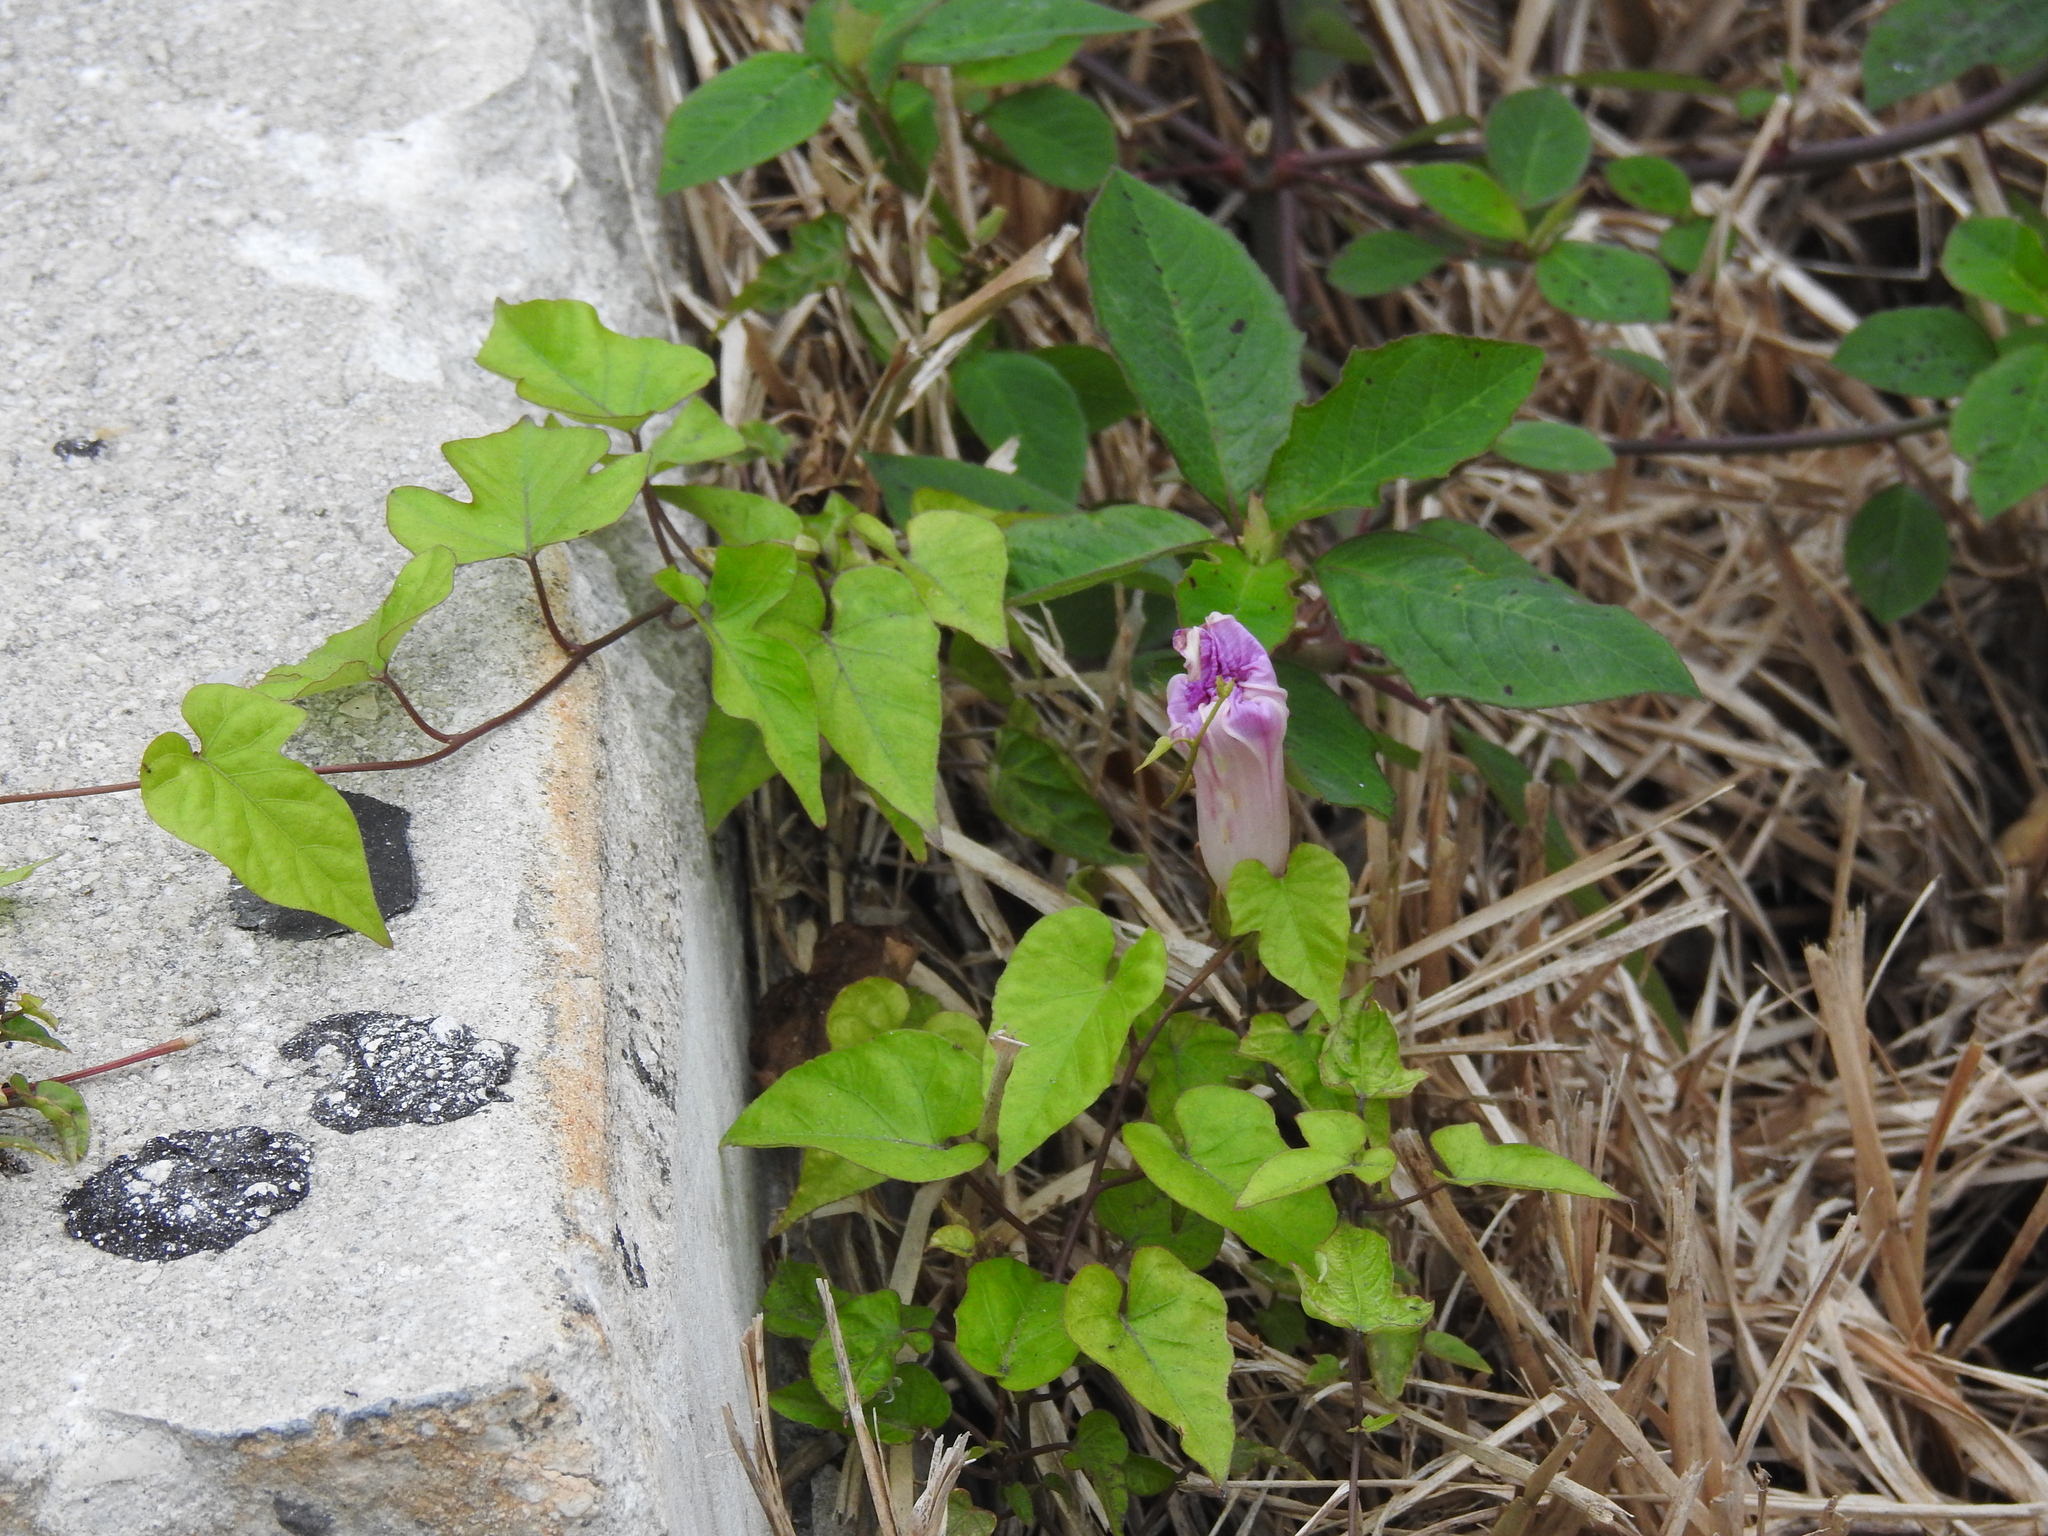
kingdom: Plantae
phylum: Tracheophyta
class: Magnoliopsida
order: Solanales
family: Convolvulaceae
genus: Ipomoea
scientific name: Ipomoea indica
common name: Blue dawnflower
